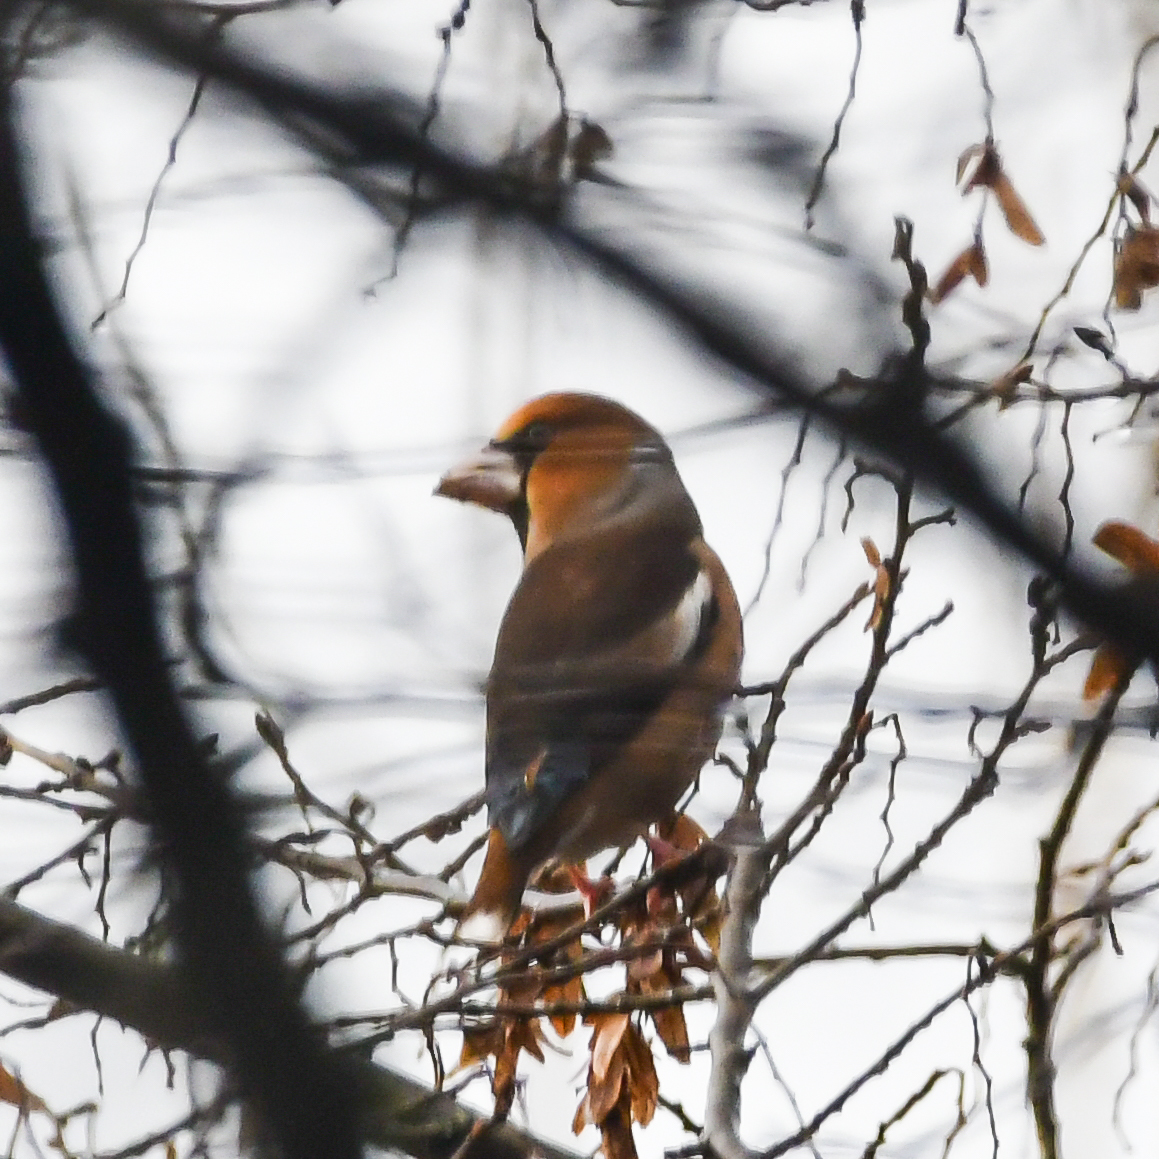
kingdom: Animalia
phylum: Chordata
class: Aves
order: Passeriformes
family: Fringillidae
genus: Coccothraustes
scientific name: Coccothraustes coccothraustes
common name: Hawfinch
